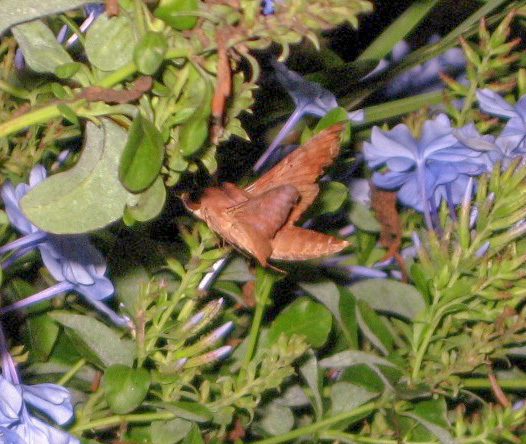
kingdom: Animalia
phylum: Arthropoda
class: Insecta
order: Lepidoptera
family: Sphingidae
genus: Enyo
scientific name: Enyo lugubris
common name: Mournful sphinx
